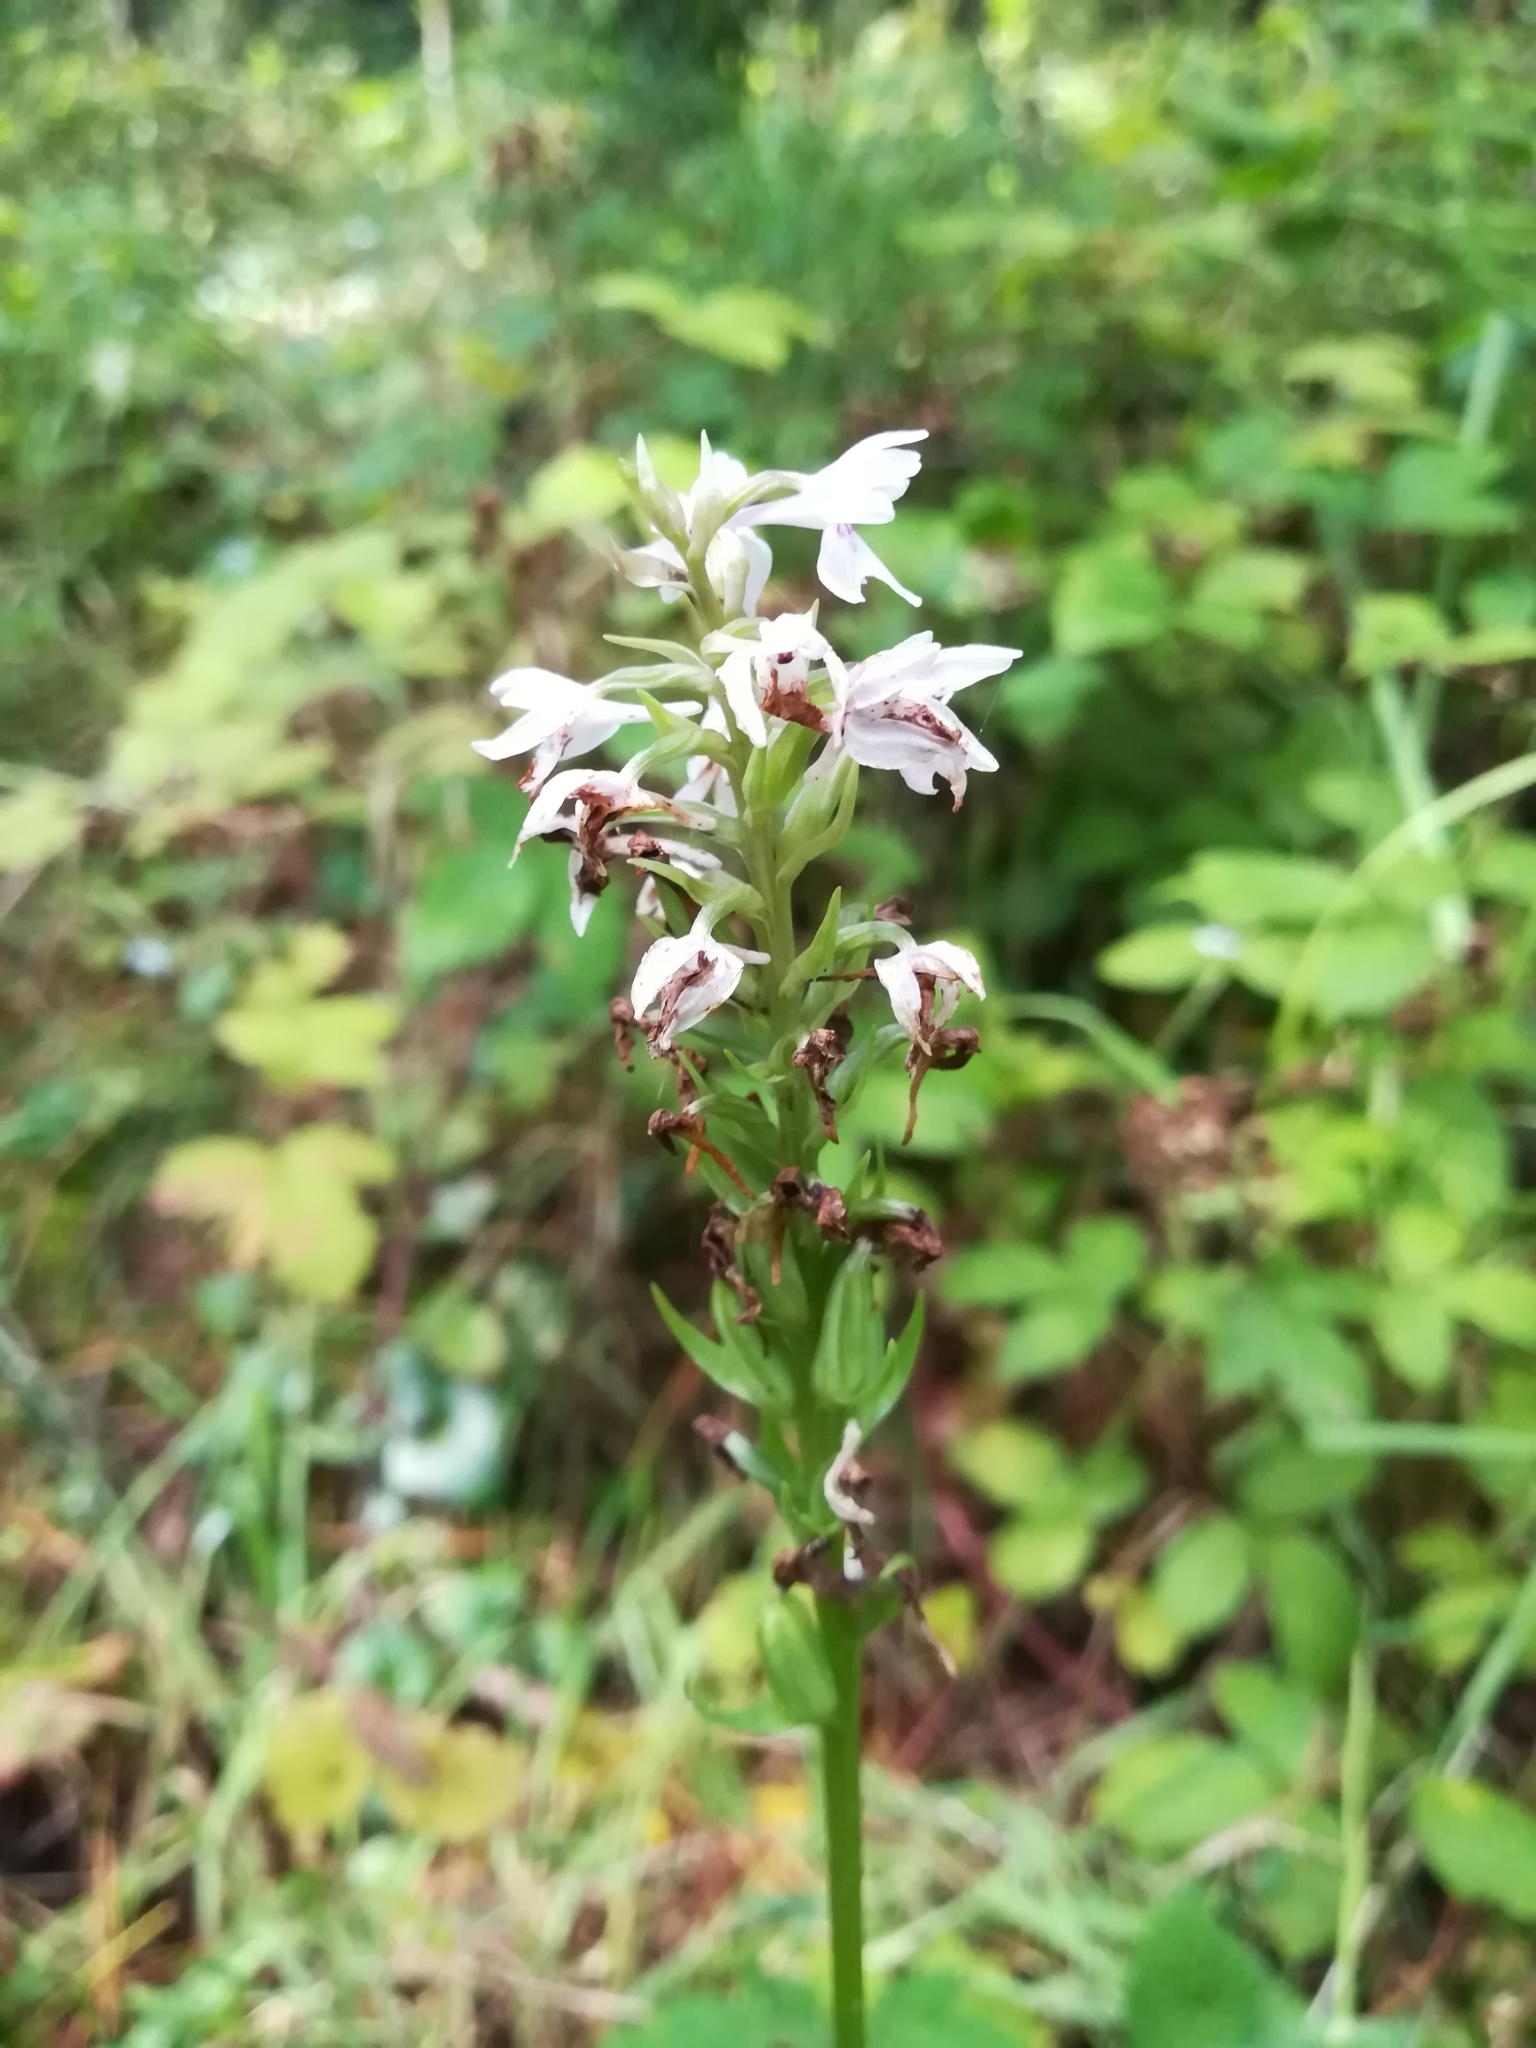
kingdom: Plantae
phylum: Tracheophyta
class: Liliopsida
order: Asparagales
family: Orchidaceae
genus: Dactylorhiza
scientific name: Dactylorhiza maculata
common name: Heath spotted-orchid
